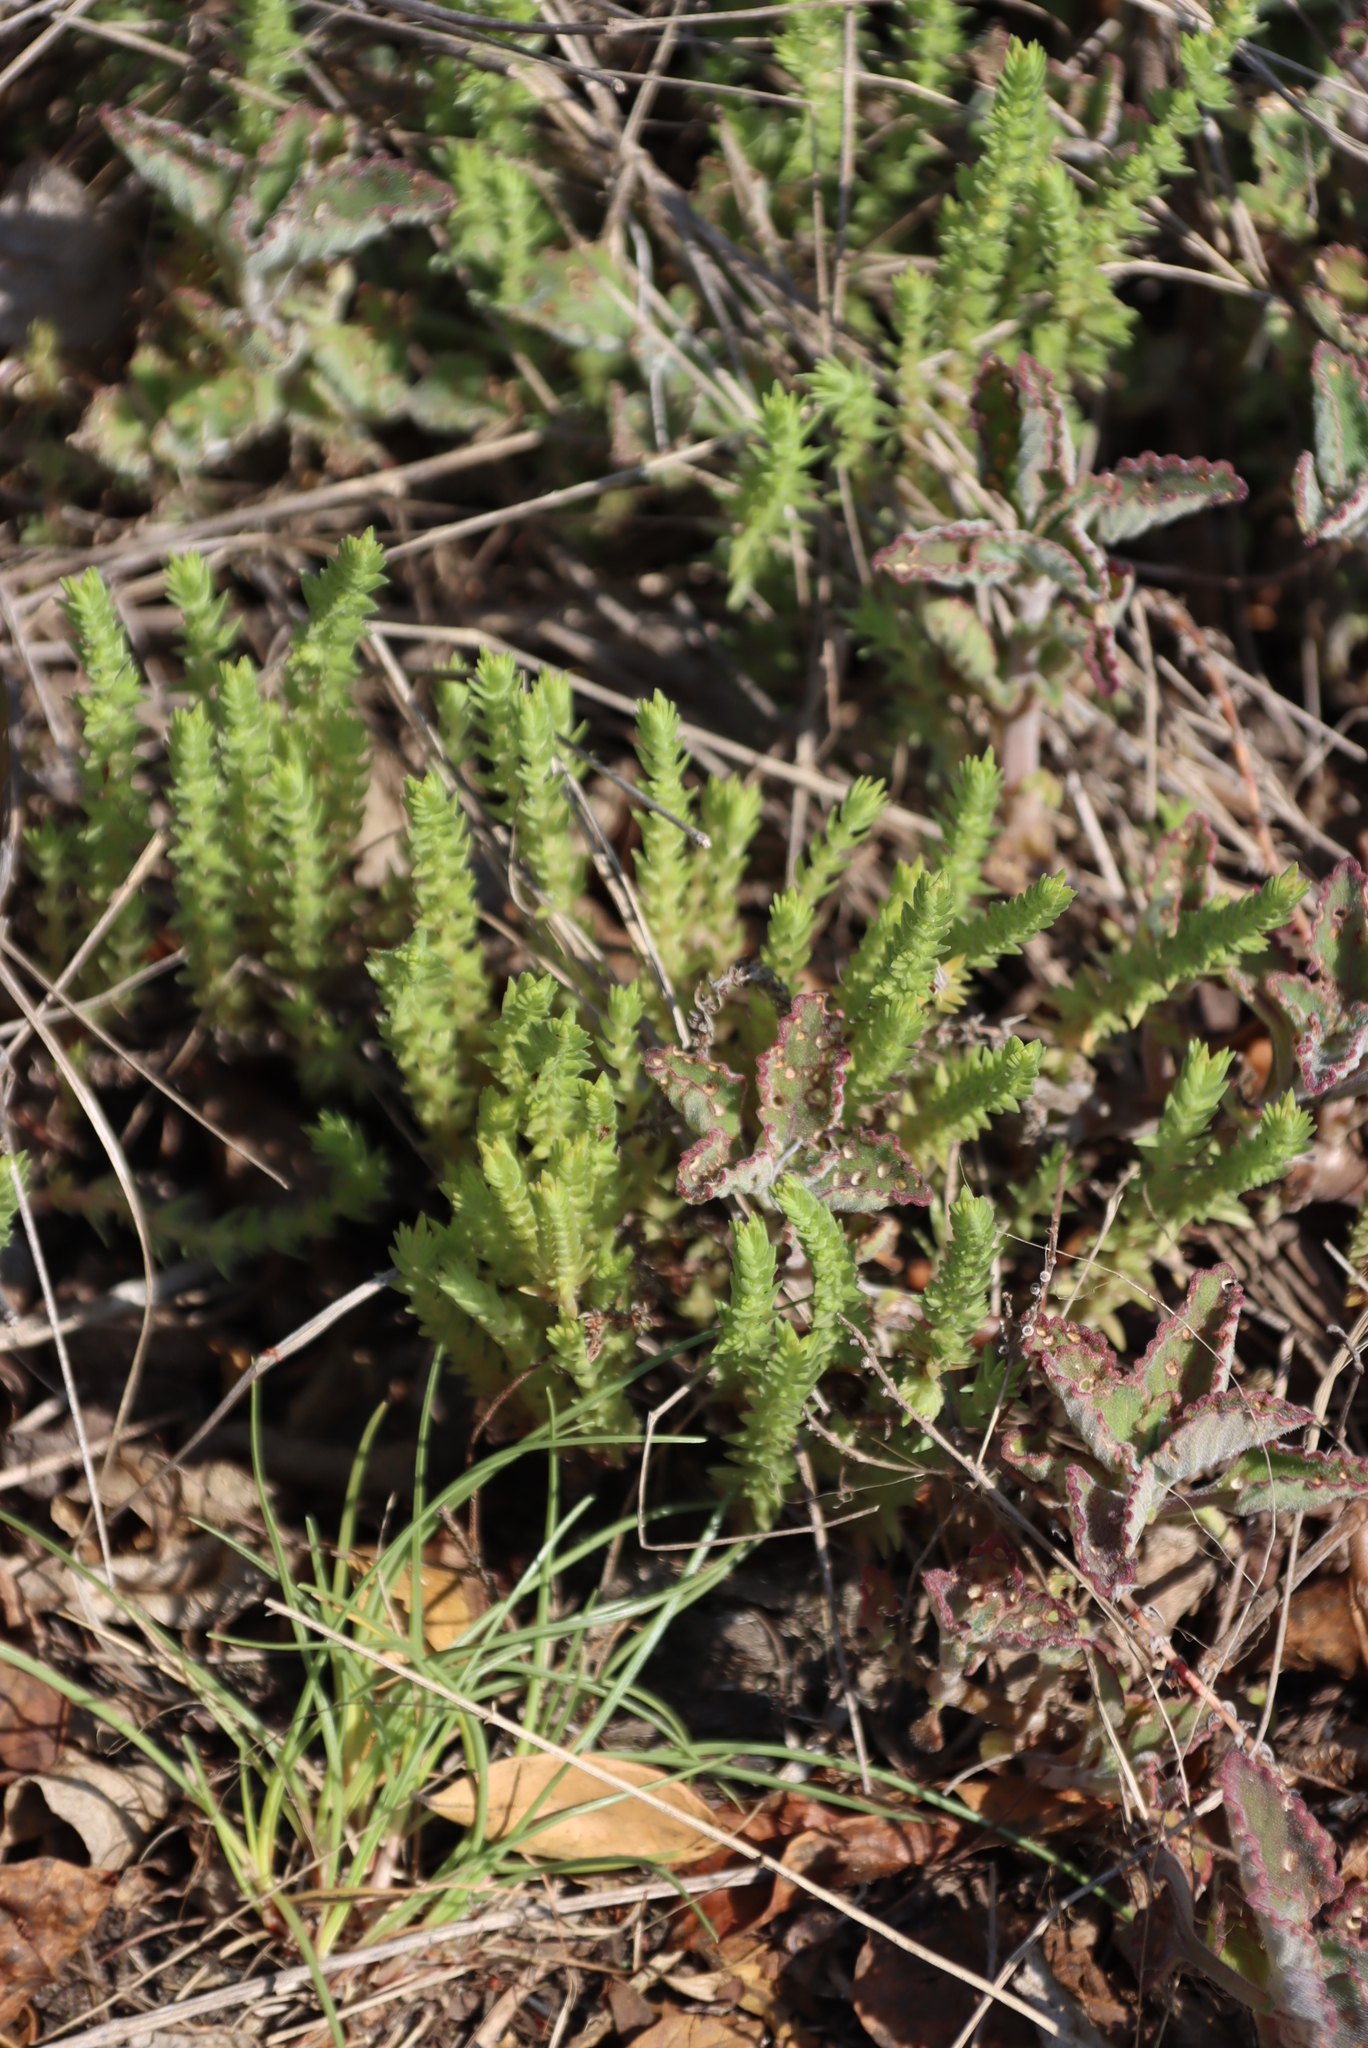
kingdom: Plantae
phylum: Tracheophyta
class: Magnoliopsida
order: Saxifragales
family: Crassulaceae
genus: Crassula
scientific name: Crassula lanceolata
